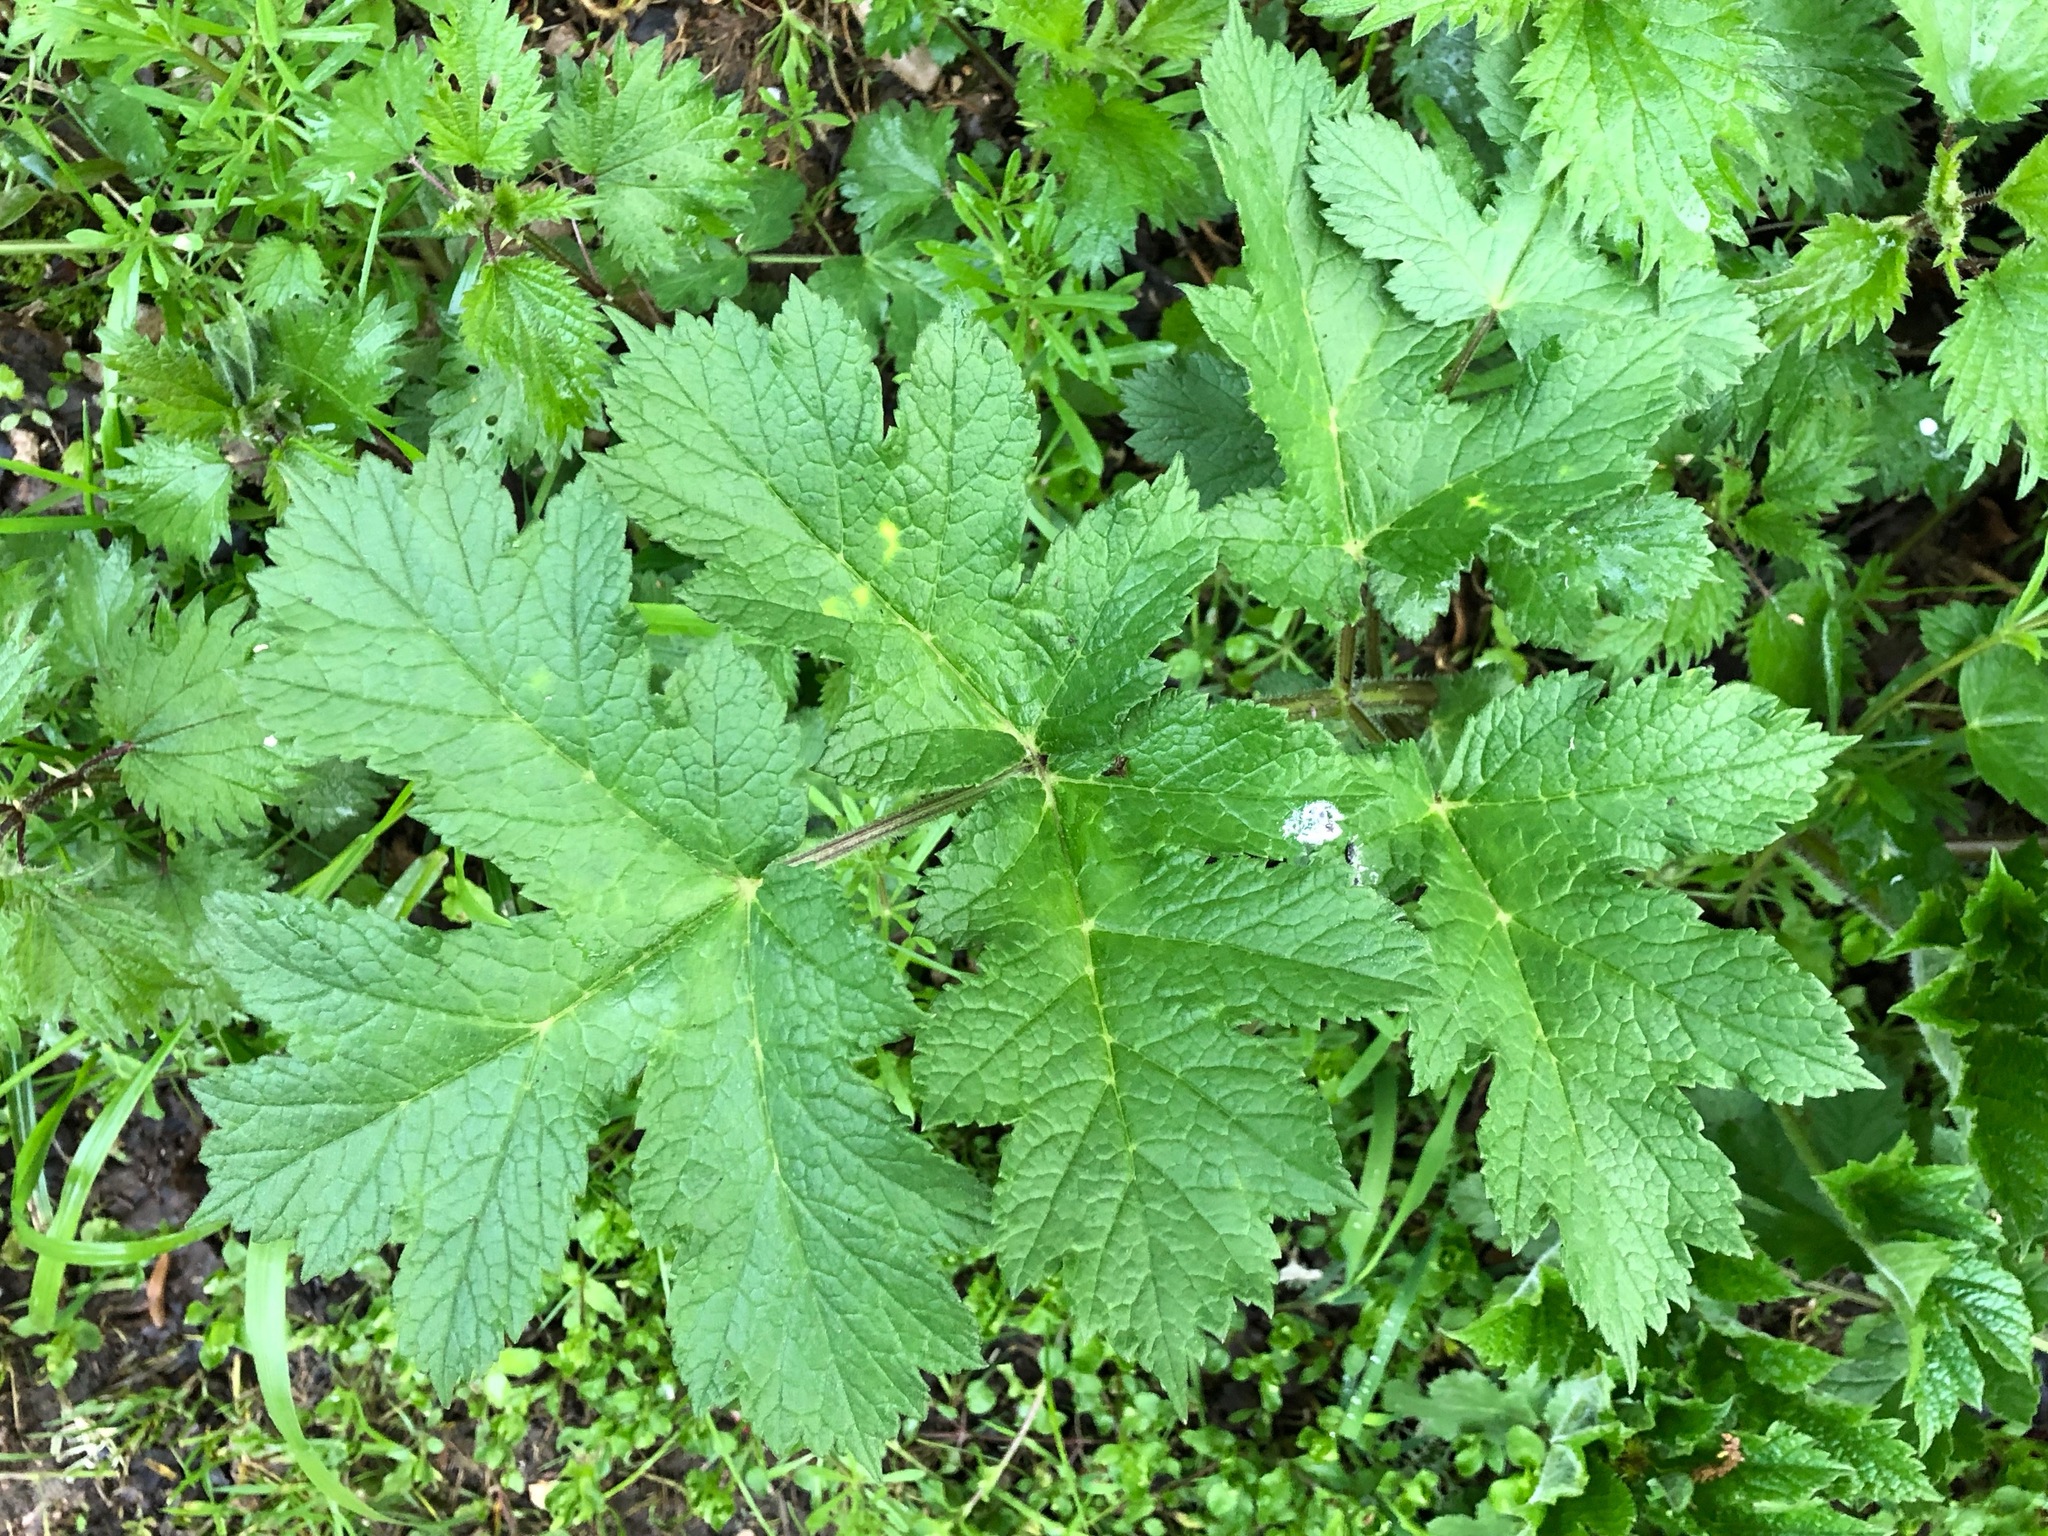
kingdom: Plantae
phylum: Tracheophyta
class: Magnoliopsida
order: Apiales
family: Apiaceae
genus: Heracleum
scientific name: Heracleum sphondylium
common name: Hogweed
